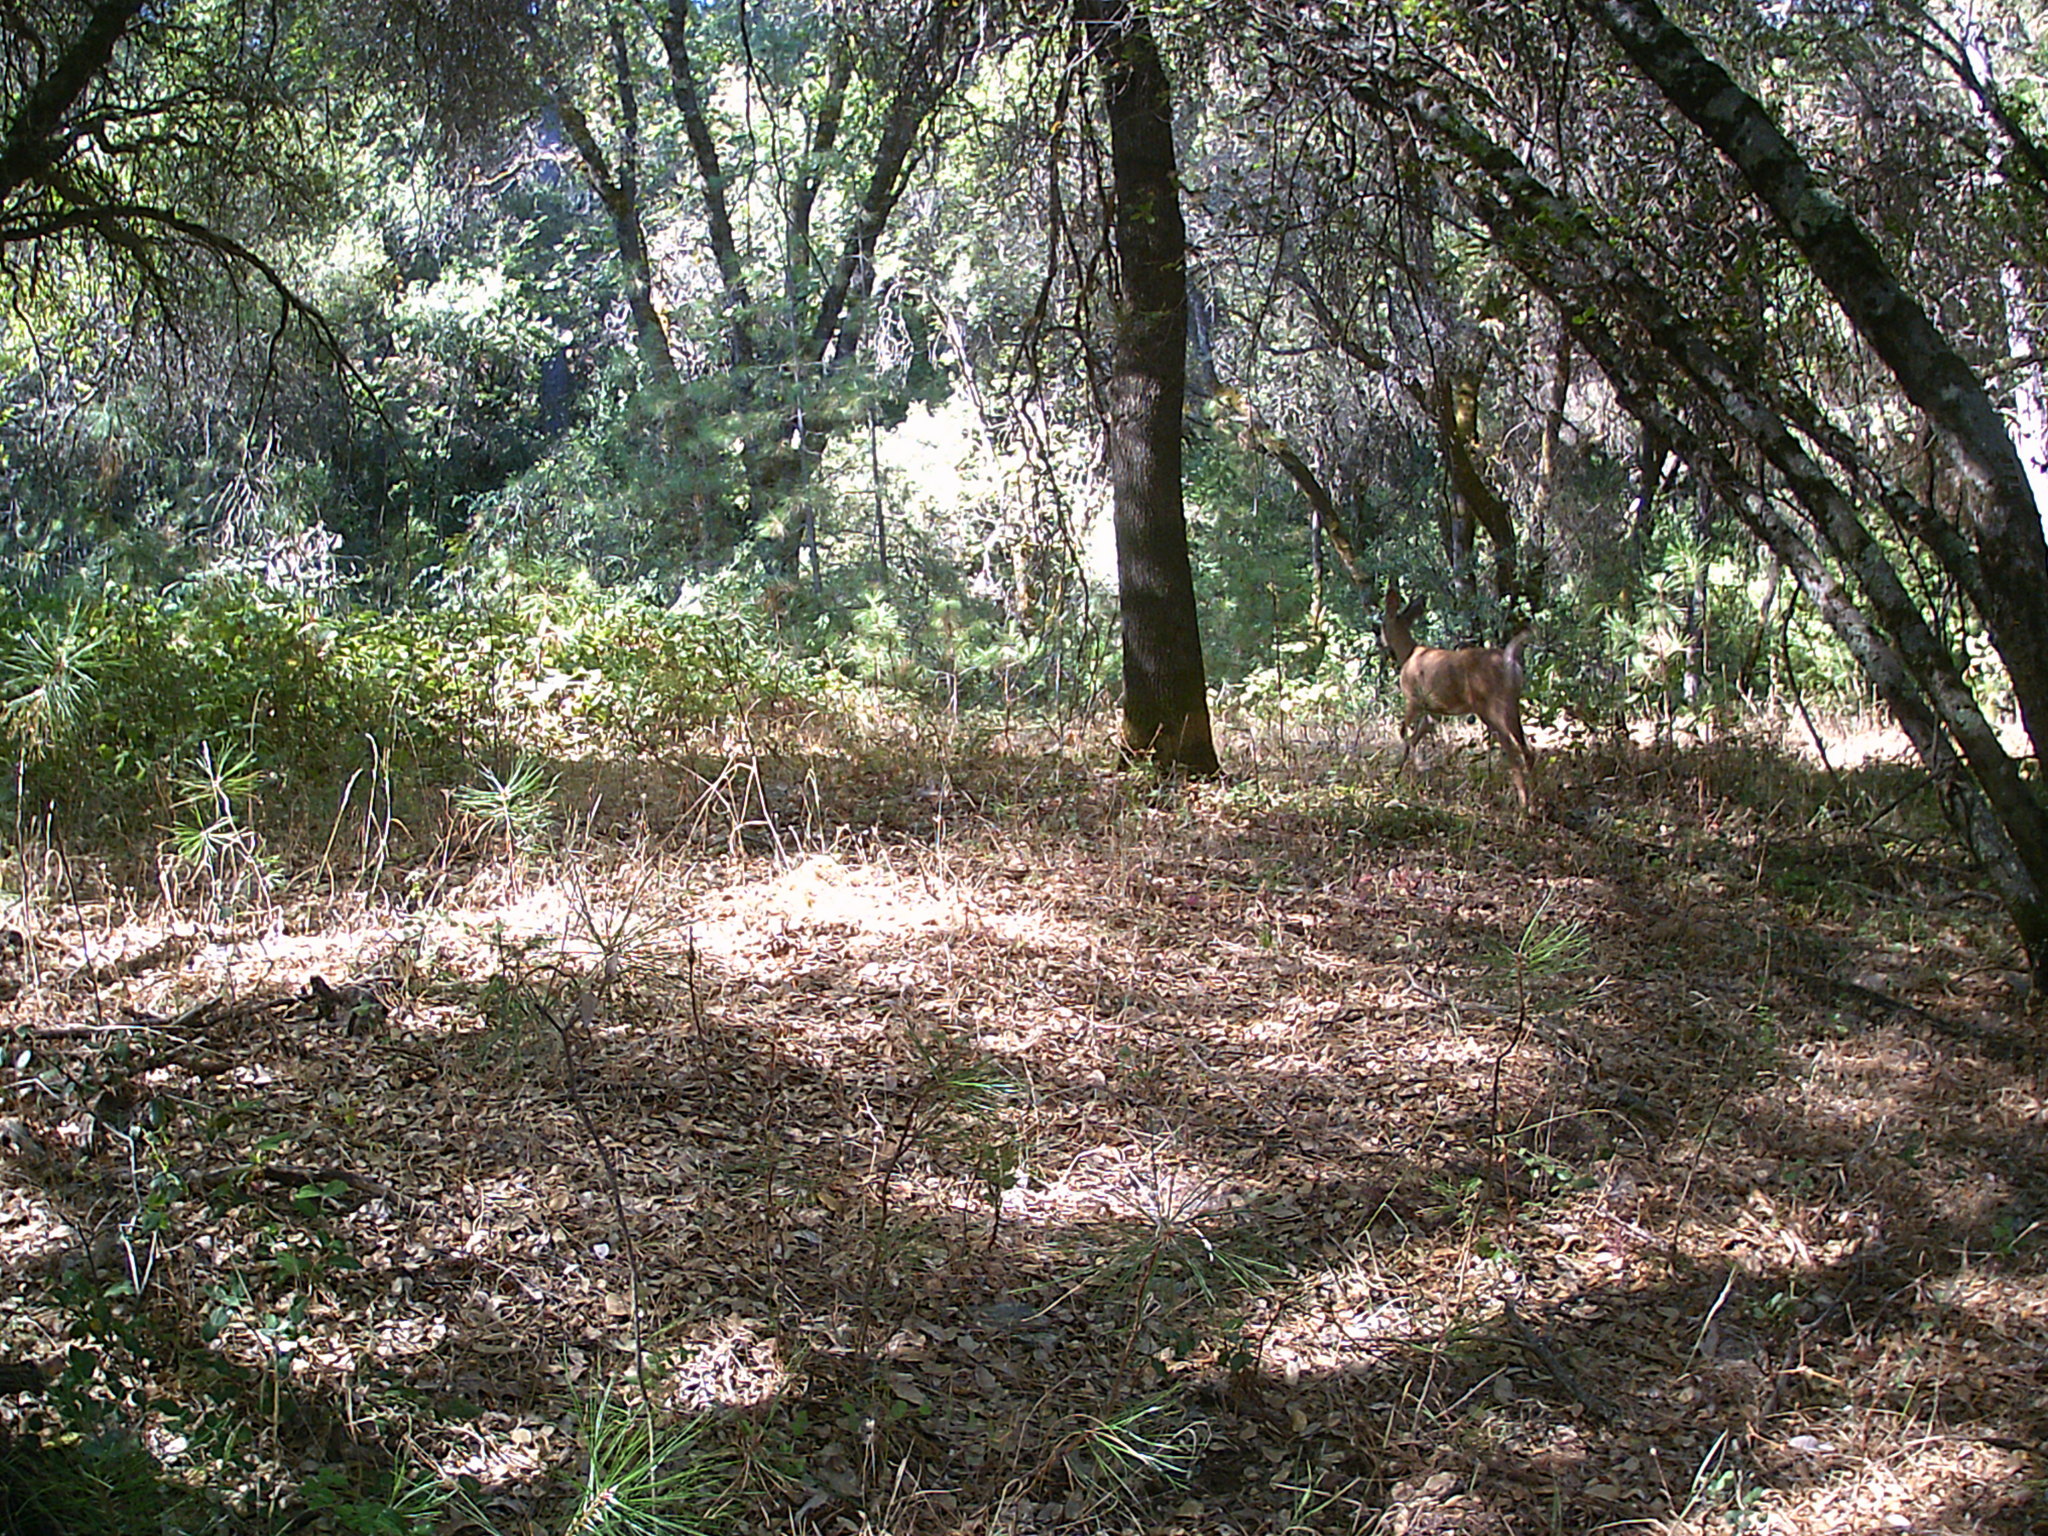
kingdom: Animalia
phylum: Chordata
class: Mammalia
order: Artiodactyla
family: Cervidae
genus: Odocoileus
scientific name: Odocoileus hemionus
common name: Mule deer
